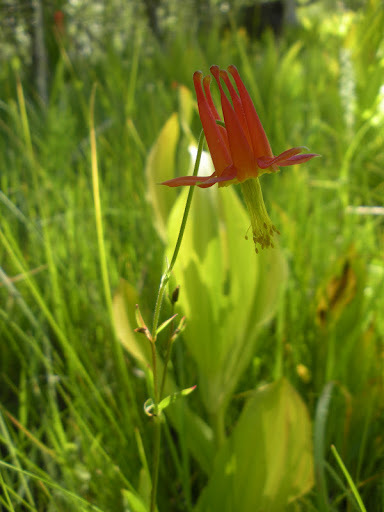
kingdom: Plantae
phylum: Tracheophyta
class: Magnoliopsida
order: Ranunculales
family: Ranunculaceae
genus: Aquilegia
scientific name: Aquilegia formosa
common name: Sitka columbine
